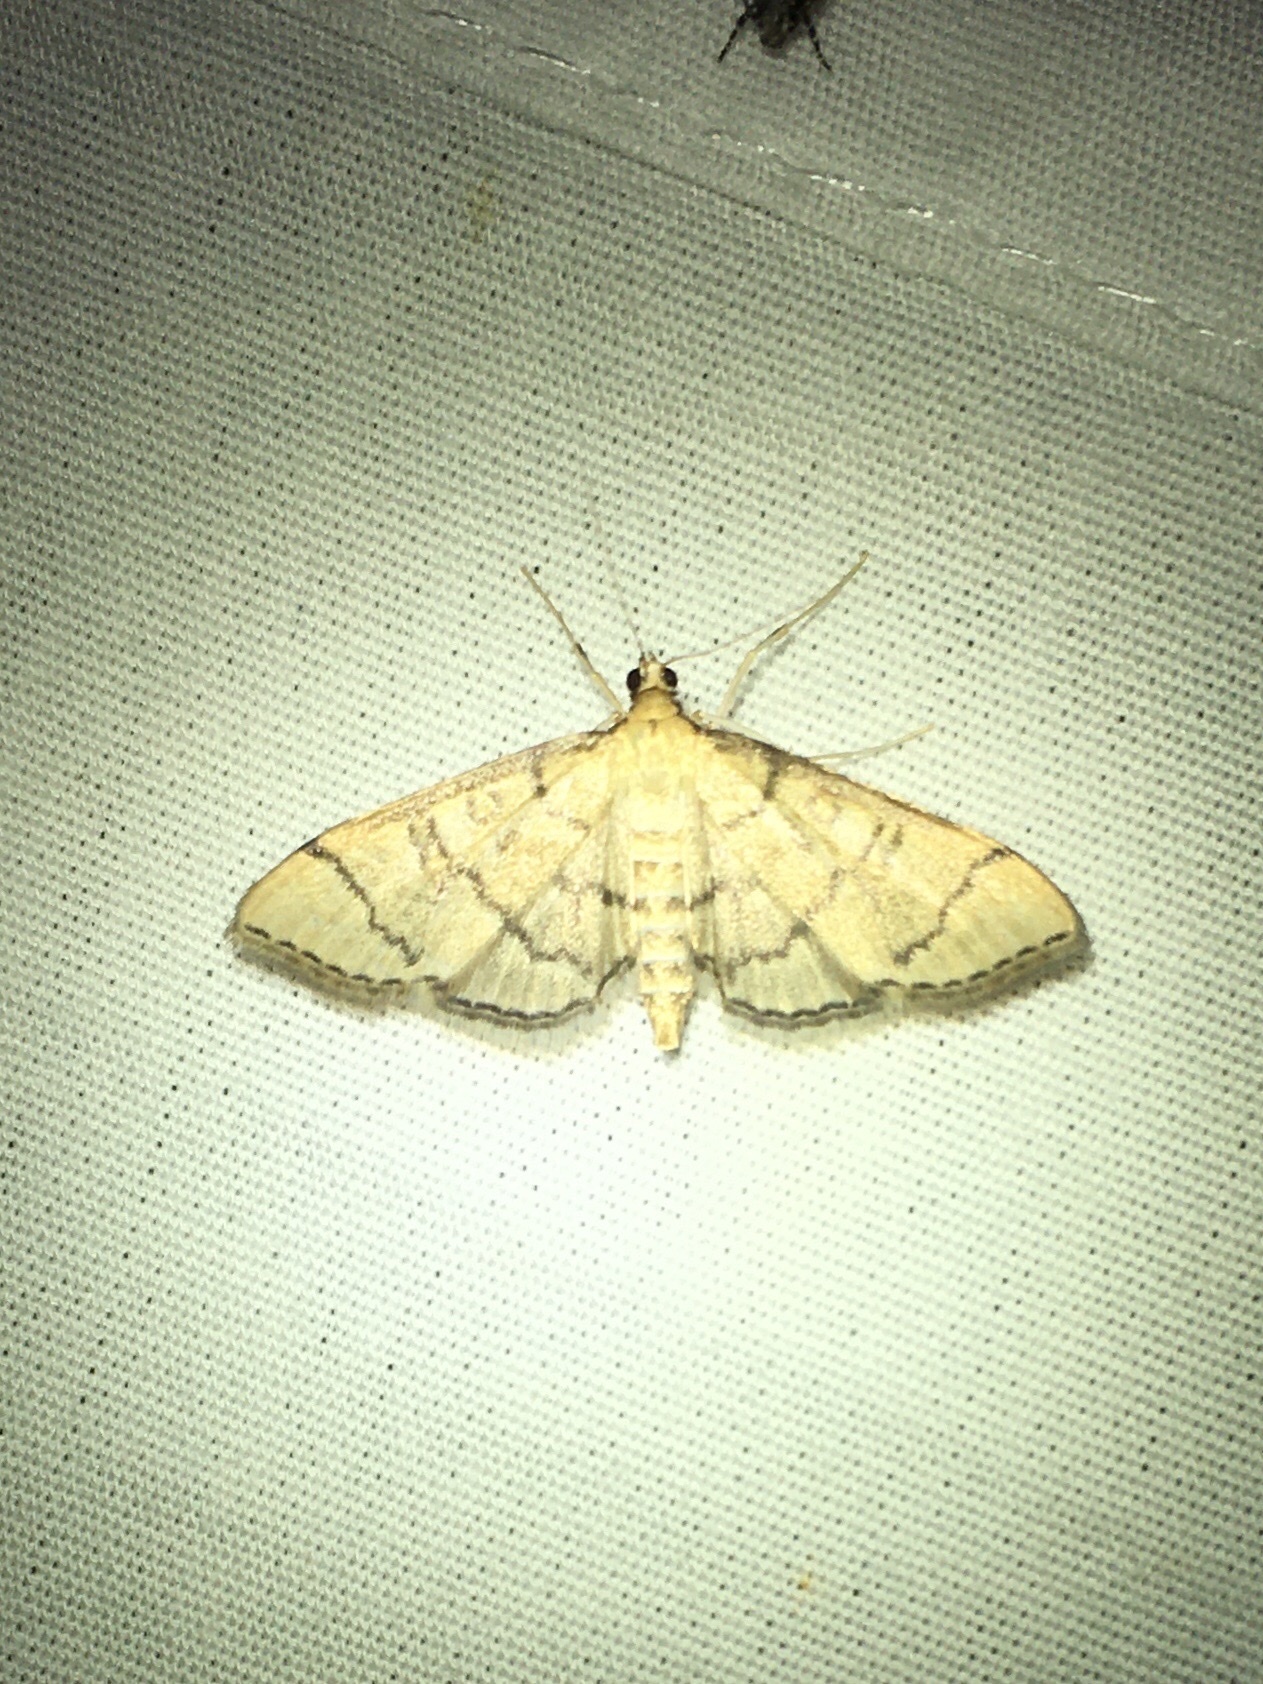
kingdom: Animalia
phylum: Arthropoda
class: Insecta
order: Lepidoptera
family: Crambidae
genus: Lamprosema
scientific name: Lamprosema Blepharomastix ranalis
